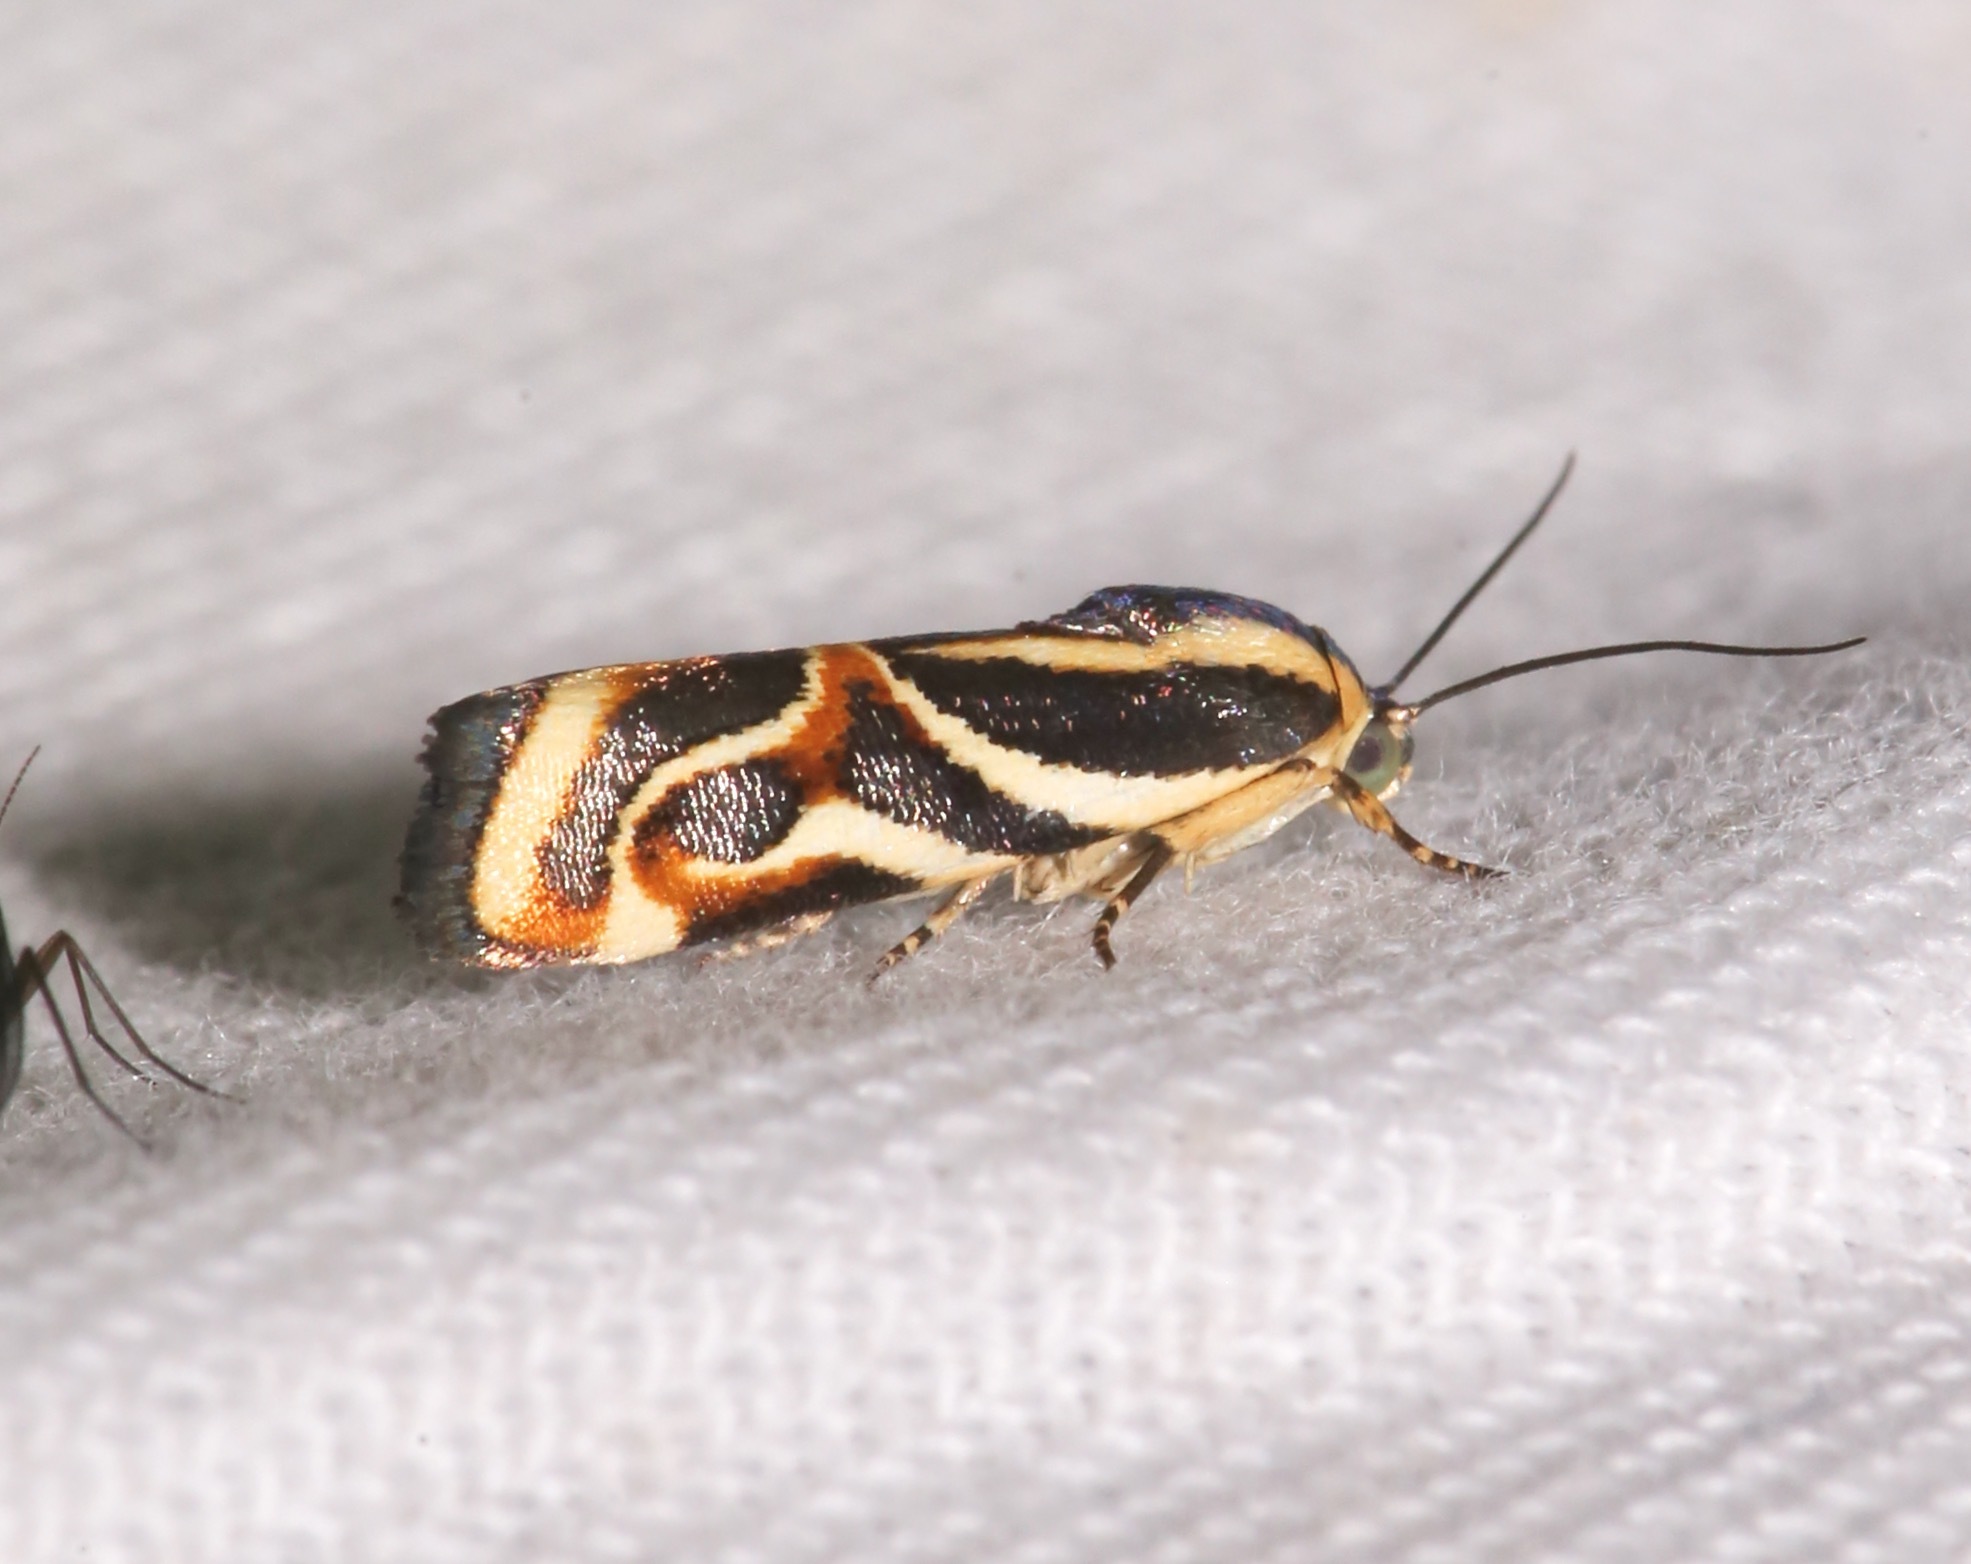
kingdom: Animalia
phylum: Arthropoda
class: Insecta
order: Lepidoptera
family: Noctuidae
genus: Spragueia
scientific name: Spragueia magnifica
